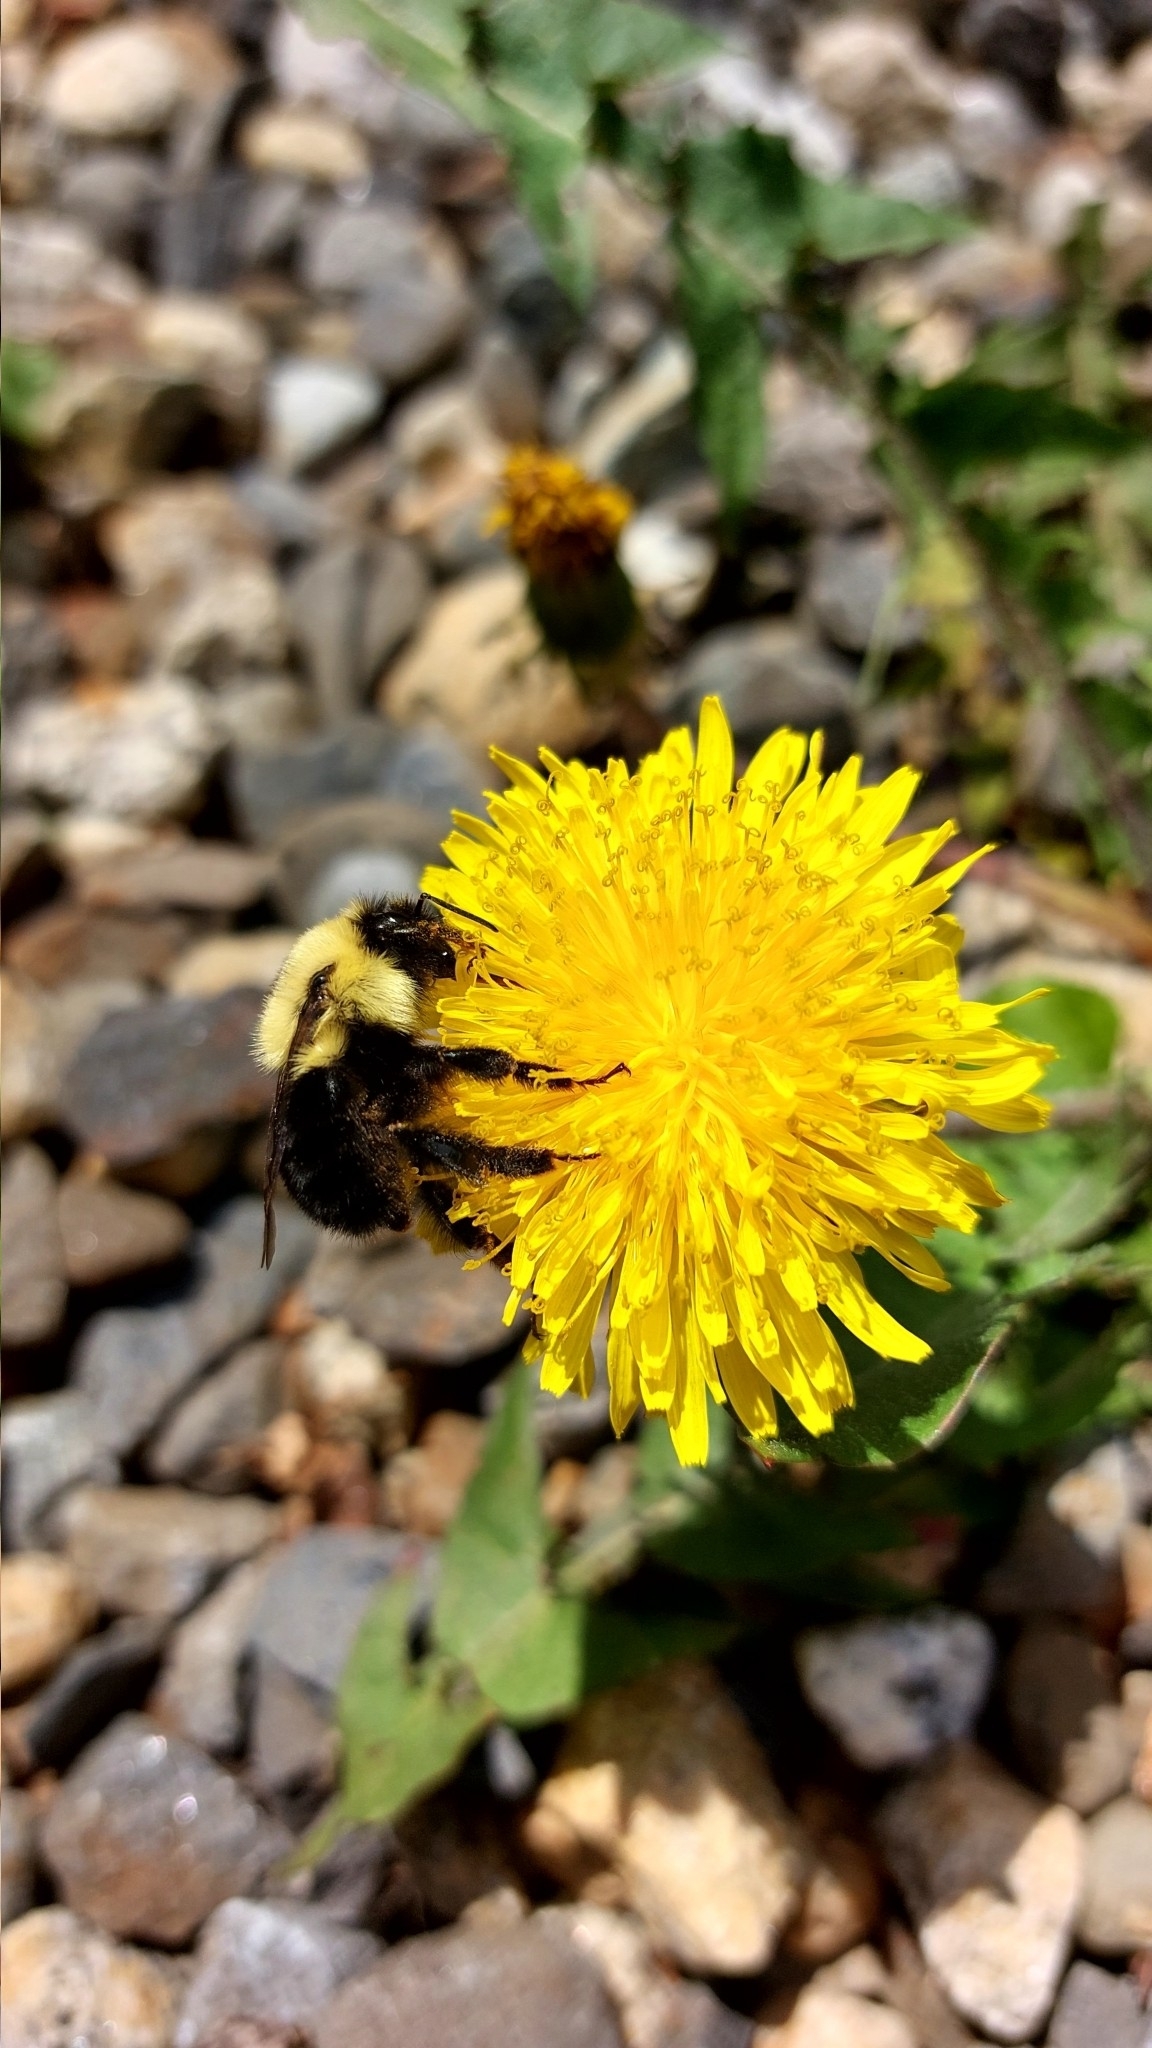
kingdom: Animalia
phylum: Arthropoda
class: Insecta
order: Hymenoptera
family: Apidae
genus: Bombus
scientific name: Bombus bimaculatus
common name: Two-spotted bumble bee
